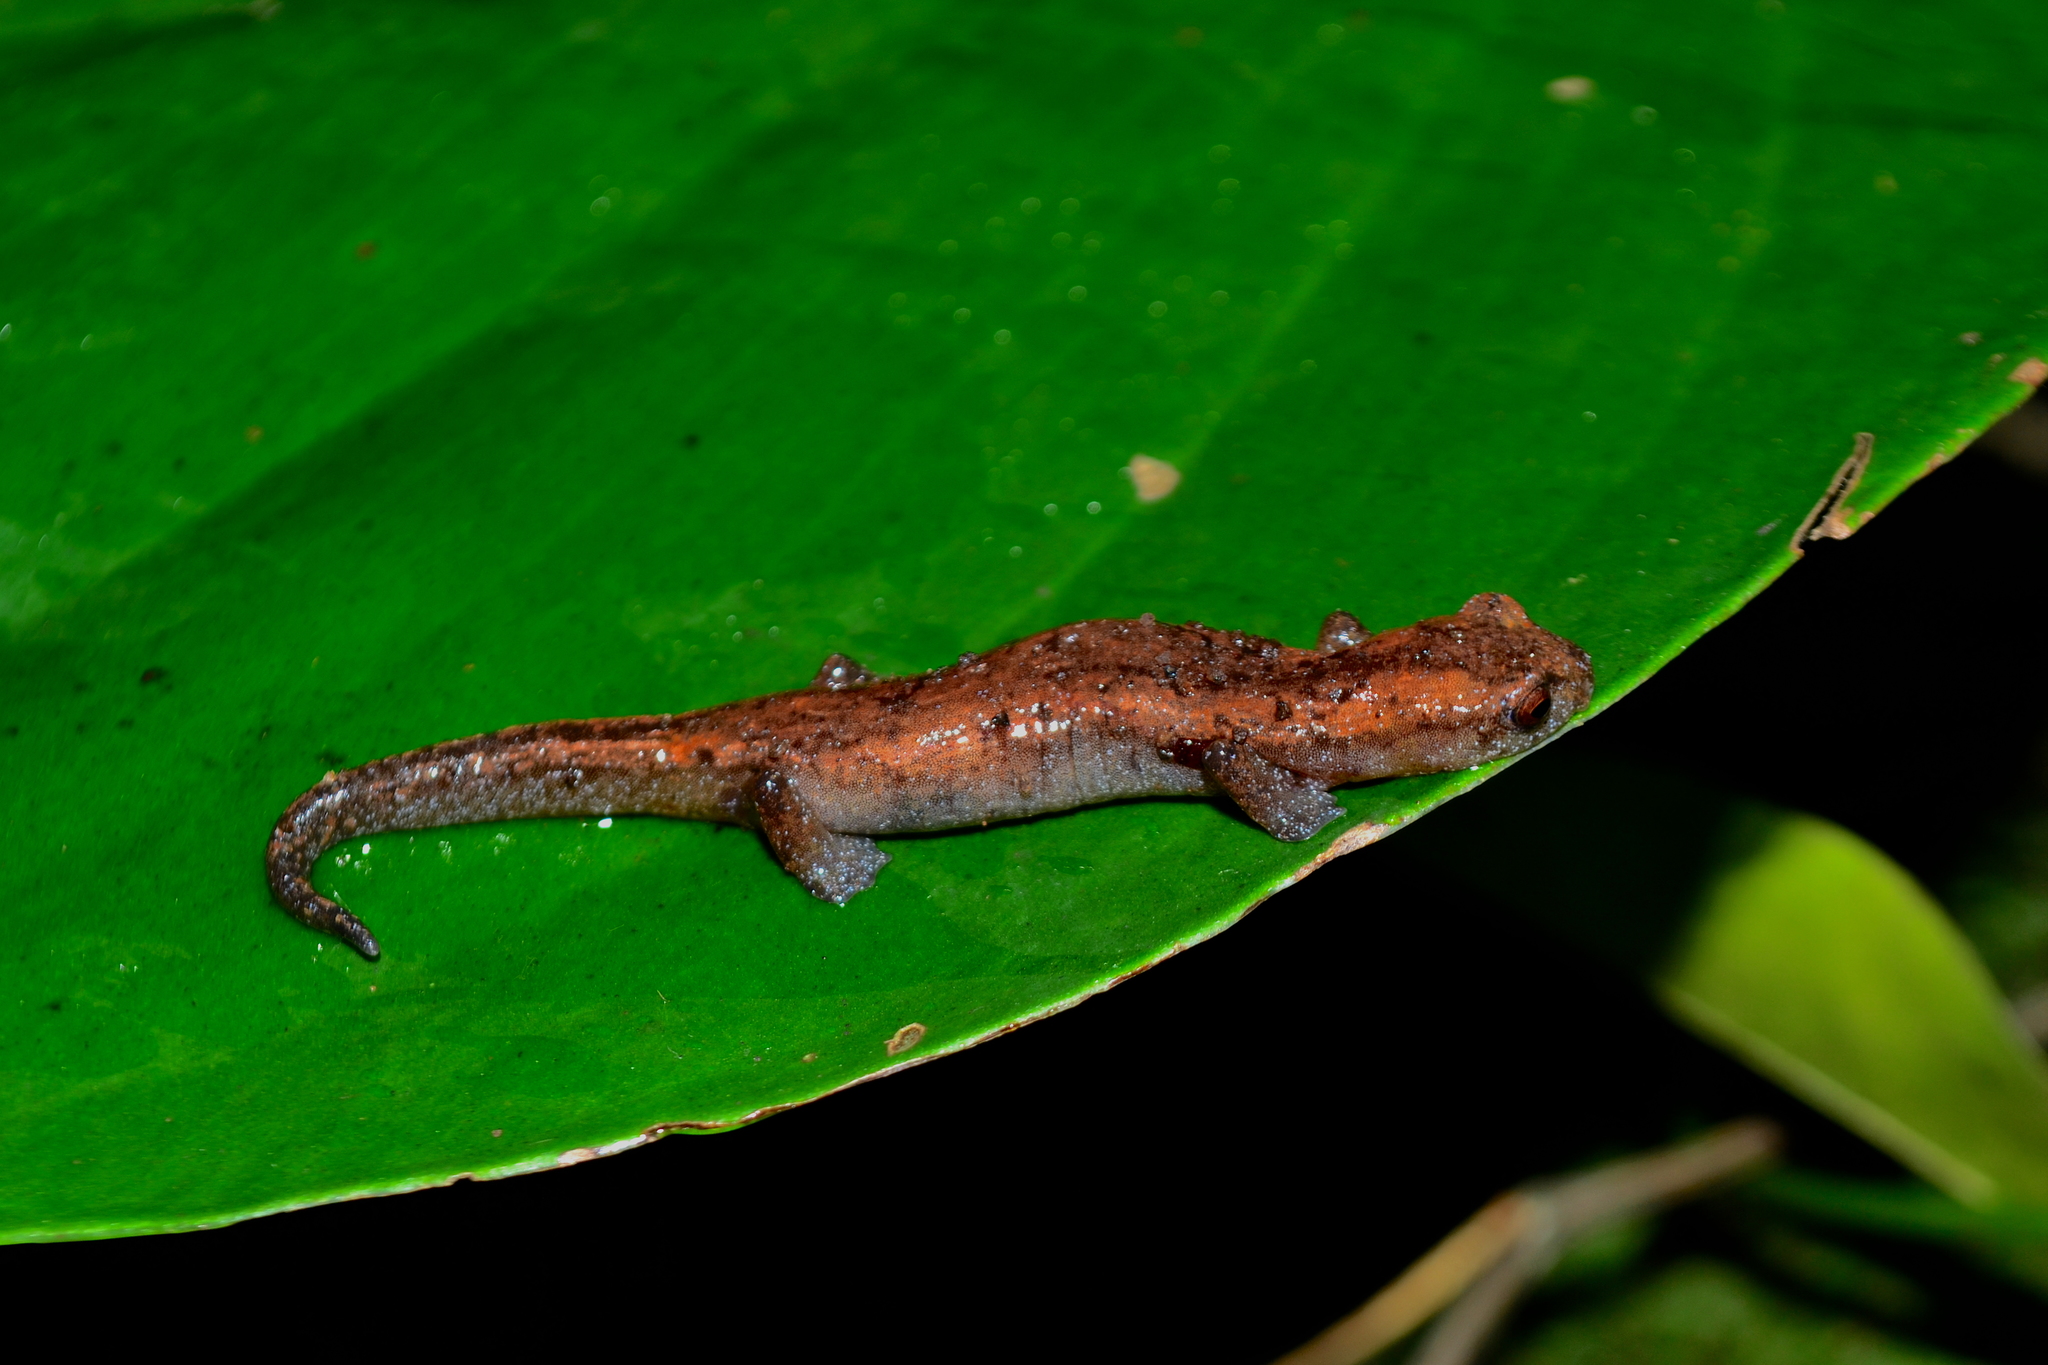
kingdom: Animalia
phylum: Chordata
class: Amphibia
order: Caudata
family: Plethodontidae
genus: Bolitoglossa
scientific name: Bolitoglossa occidentalis
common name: Southern banana salamander
